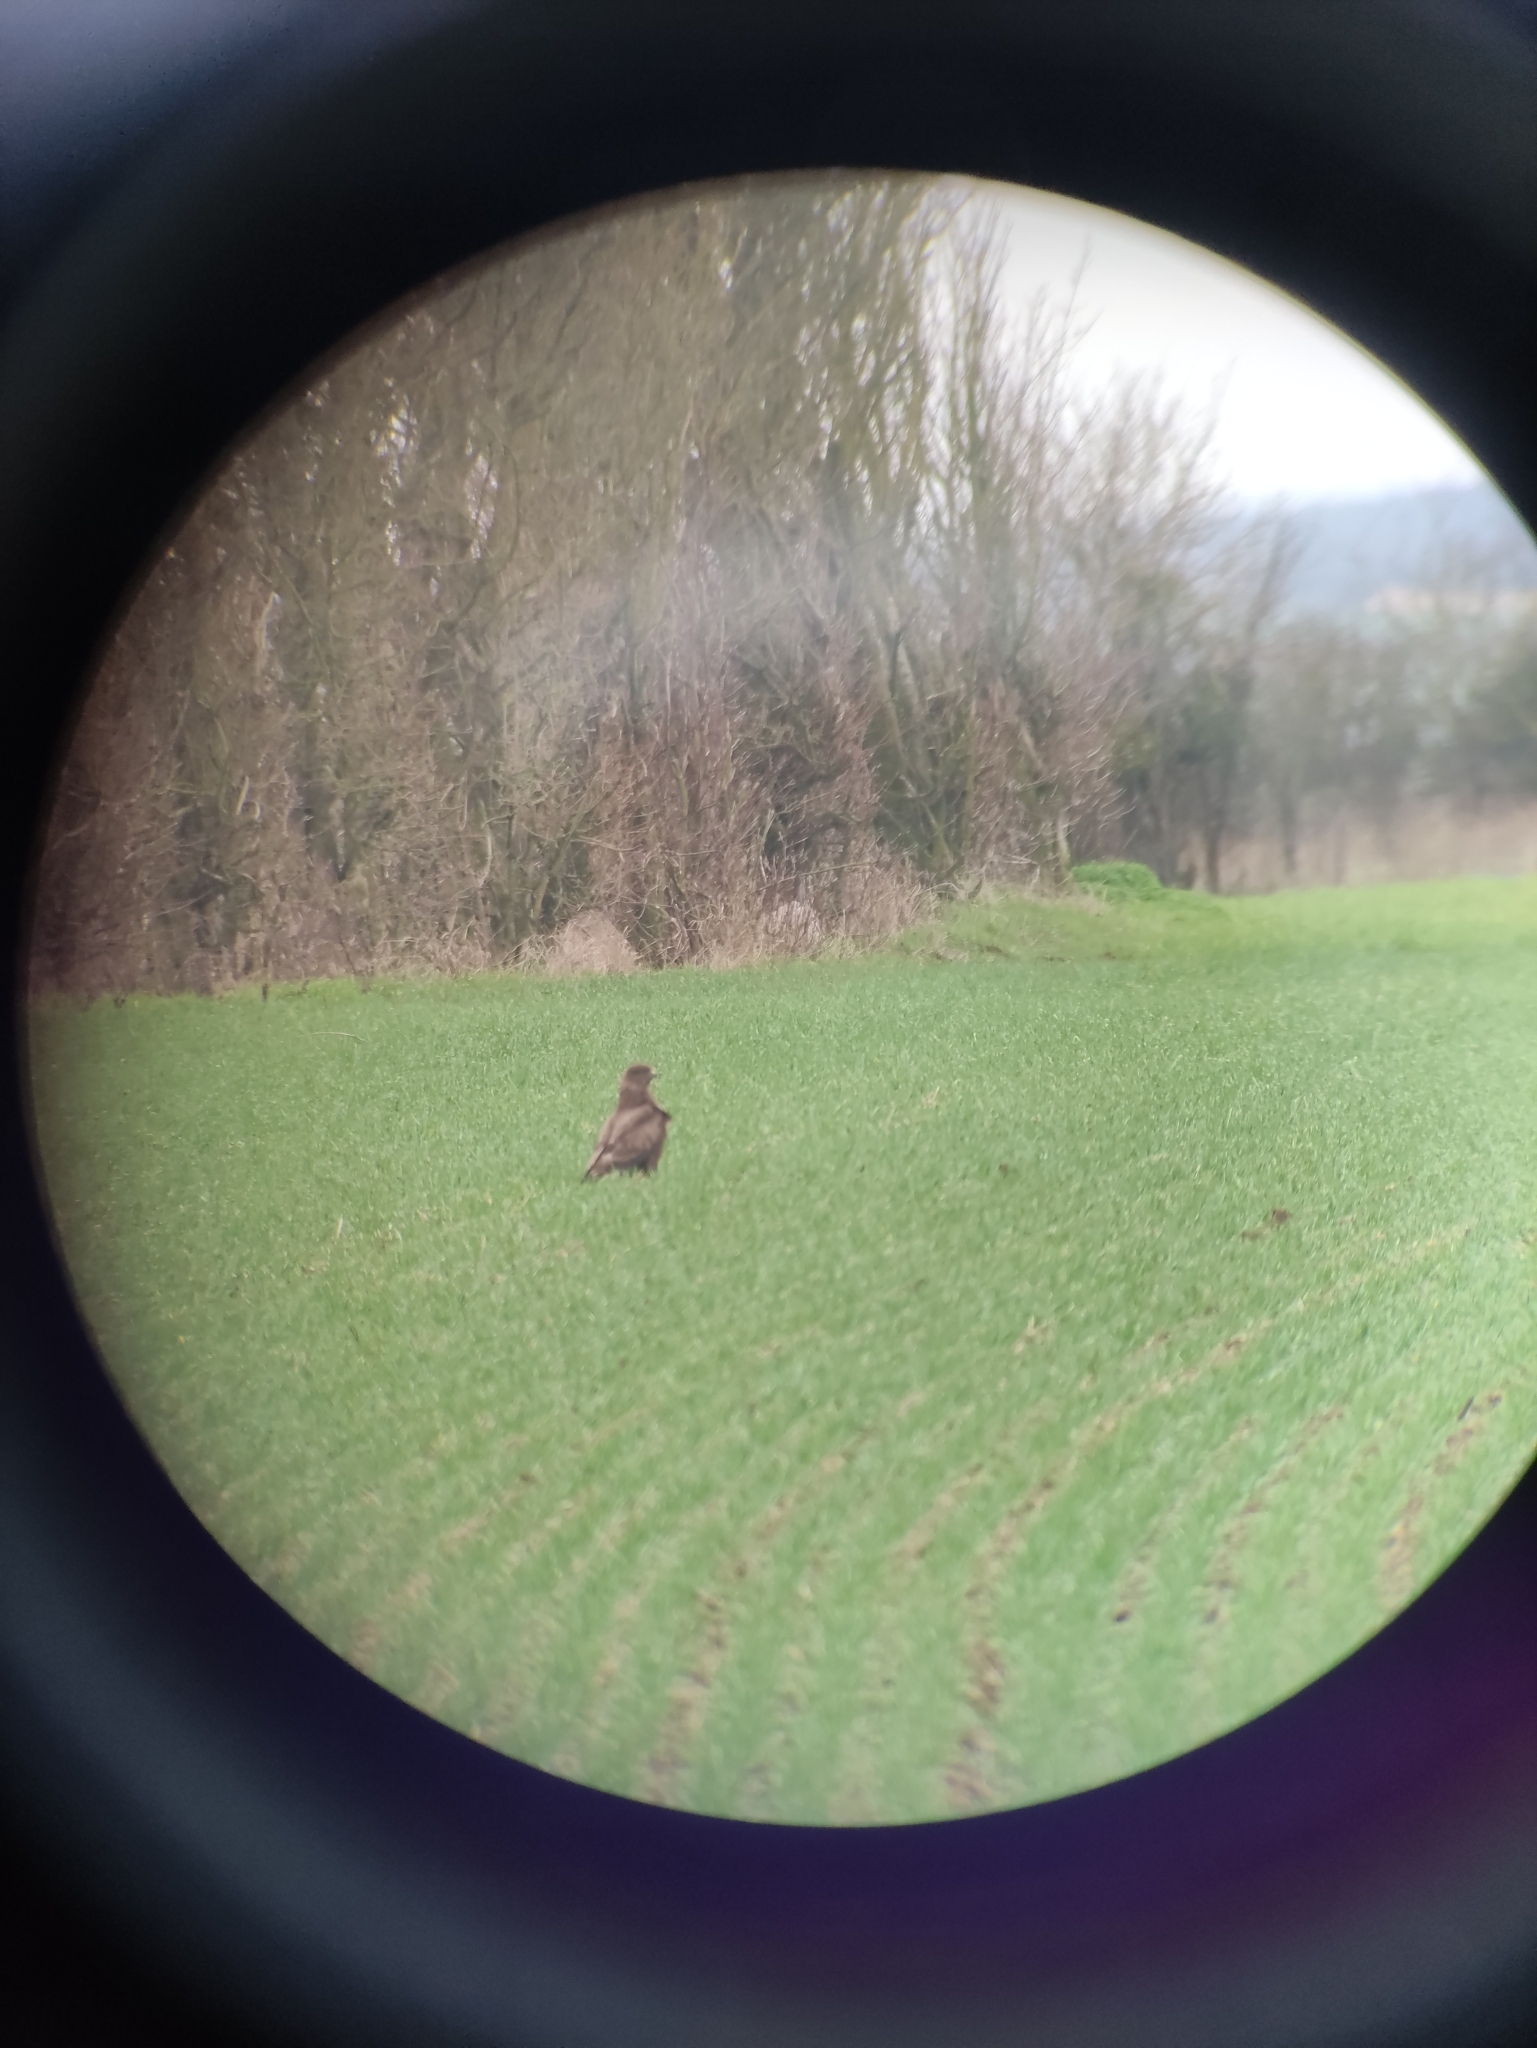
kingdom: Animalia
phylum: Chordata
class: Aves
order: Accipitriformes
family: Accipitridae
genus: Buteo
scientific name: Buteo buteo
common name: Common buzzard
